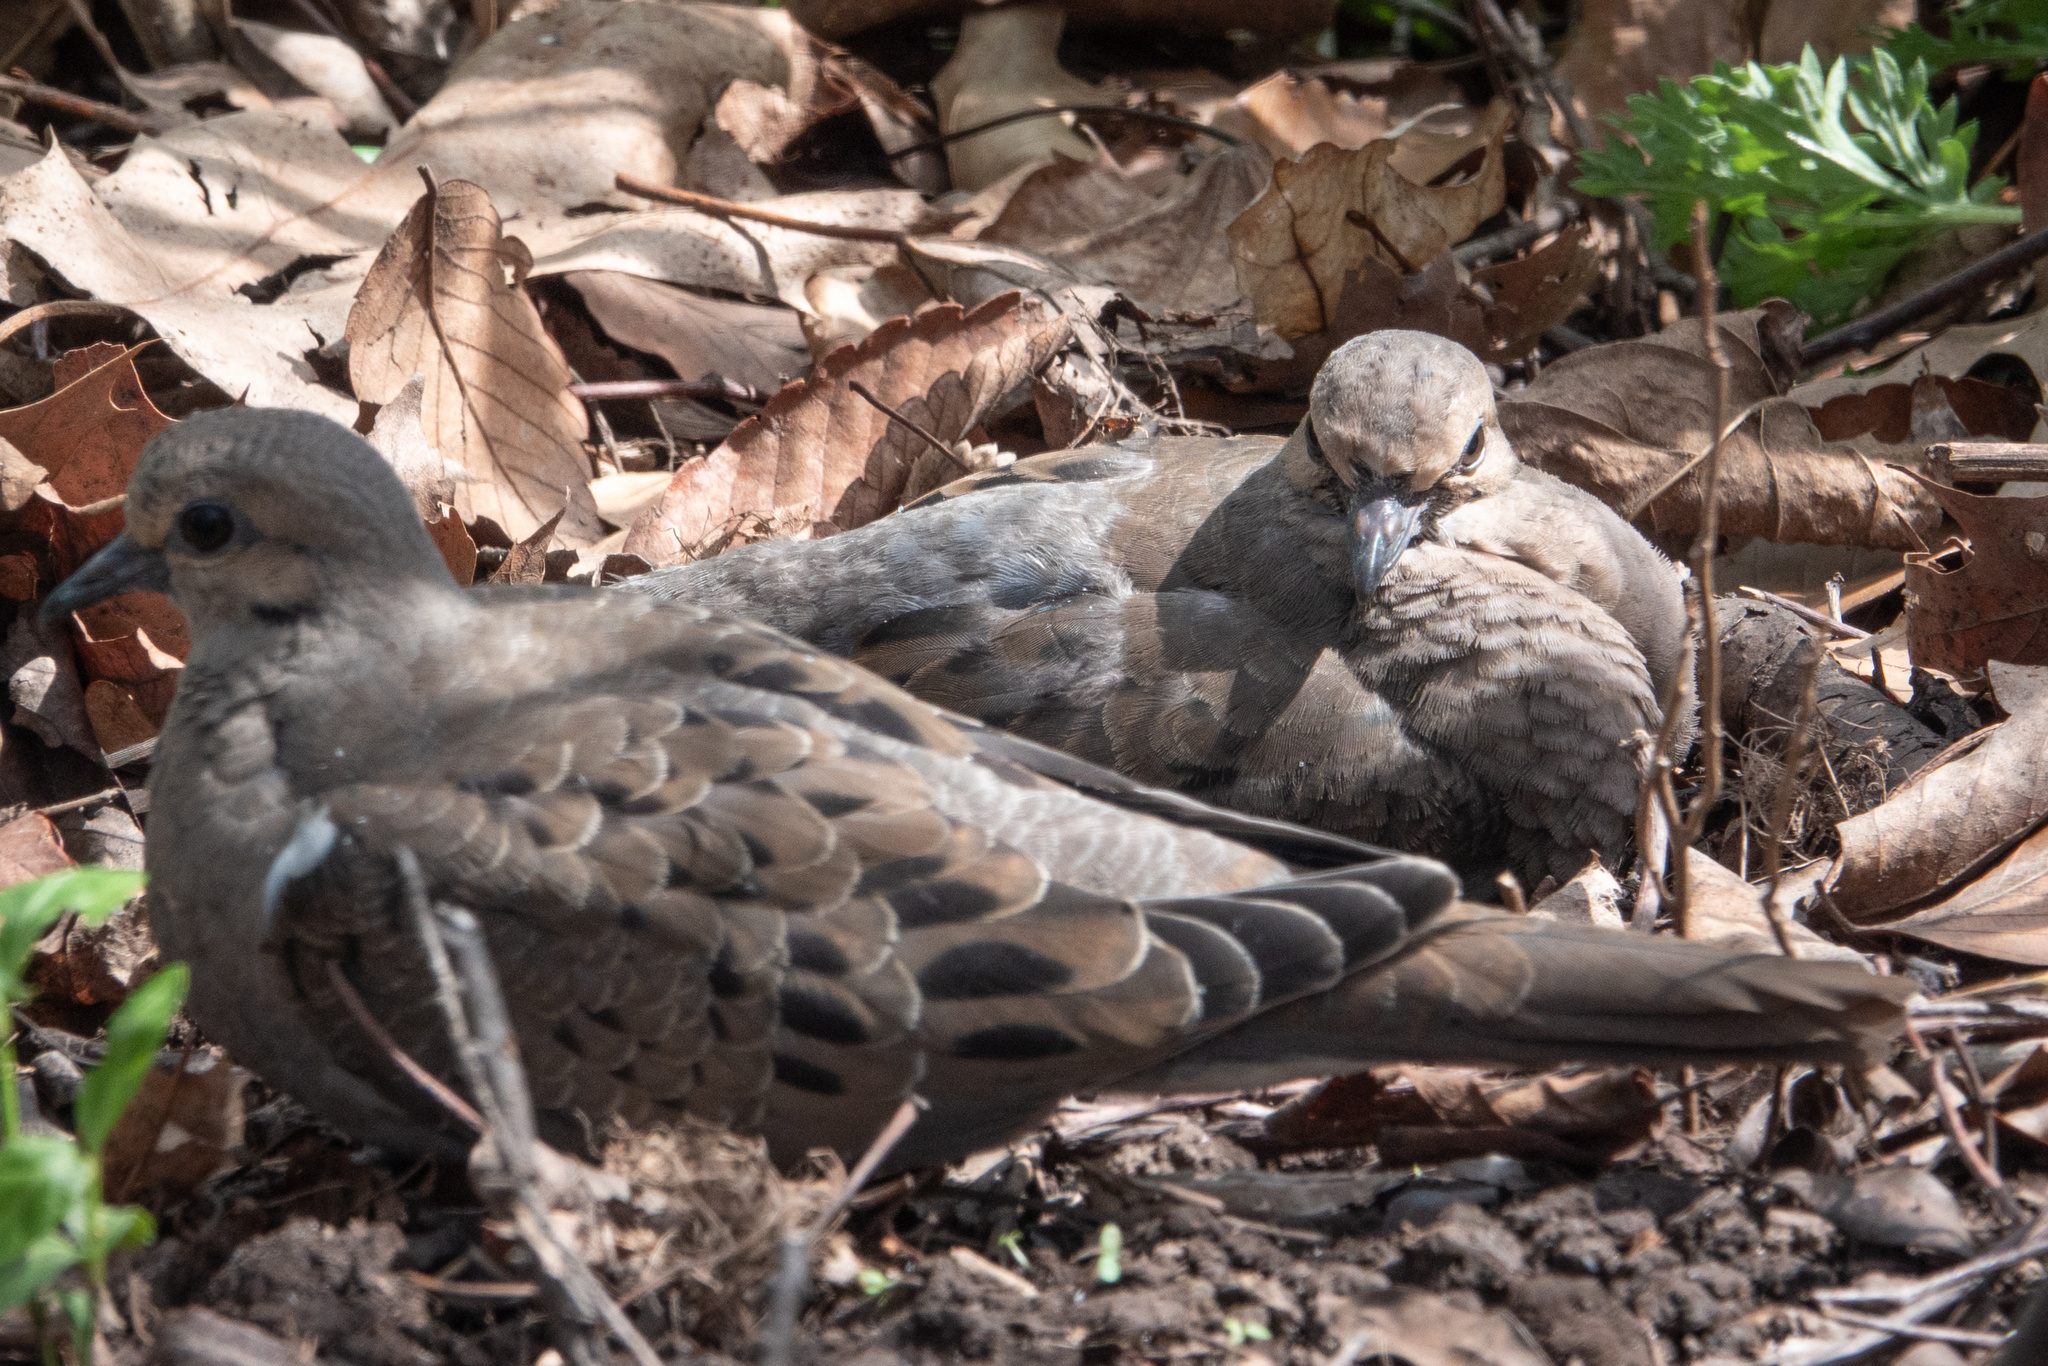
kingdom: Animalia
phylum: Chordata
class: Aves
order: Columbiformes
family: Columbidae
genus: Zenaida
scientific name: Zenaida macroura
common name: Mourning dove
